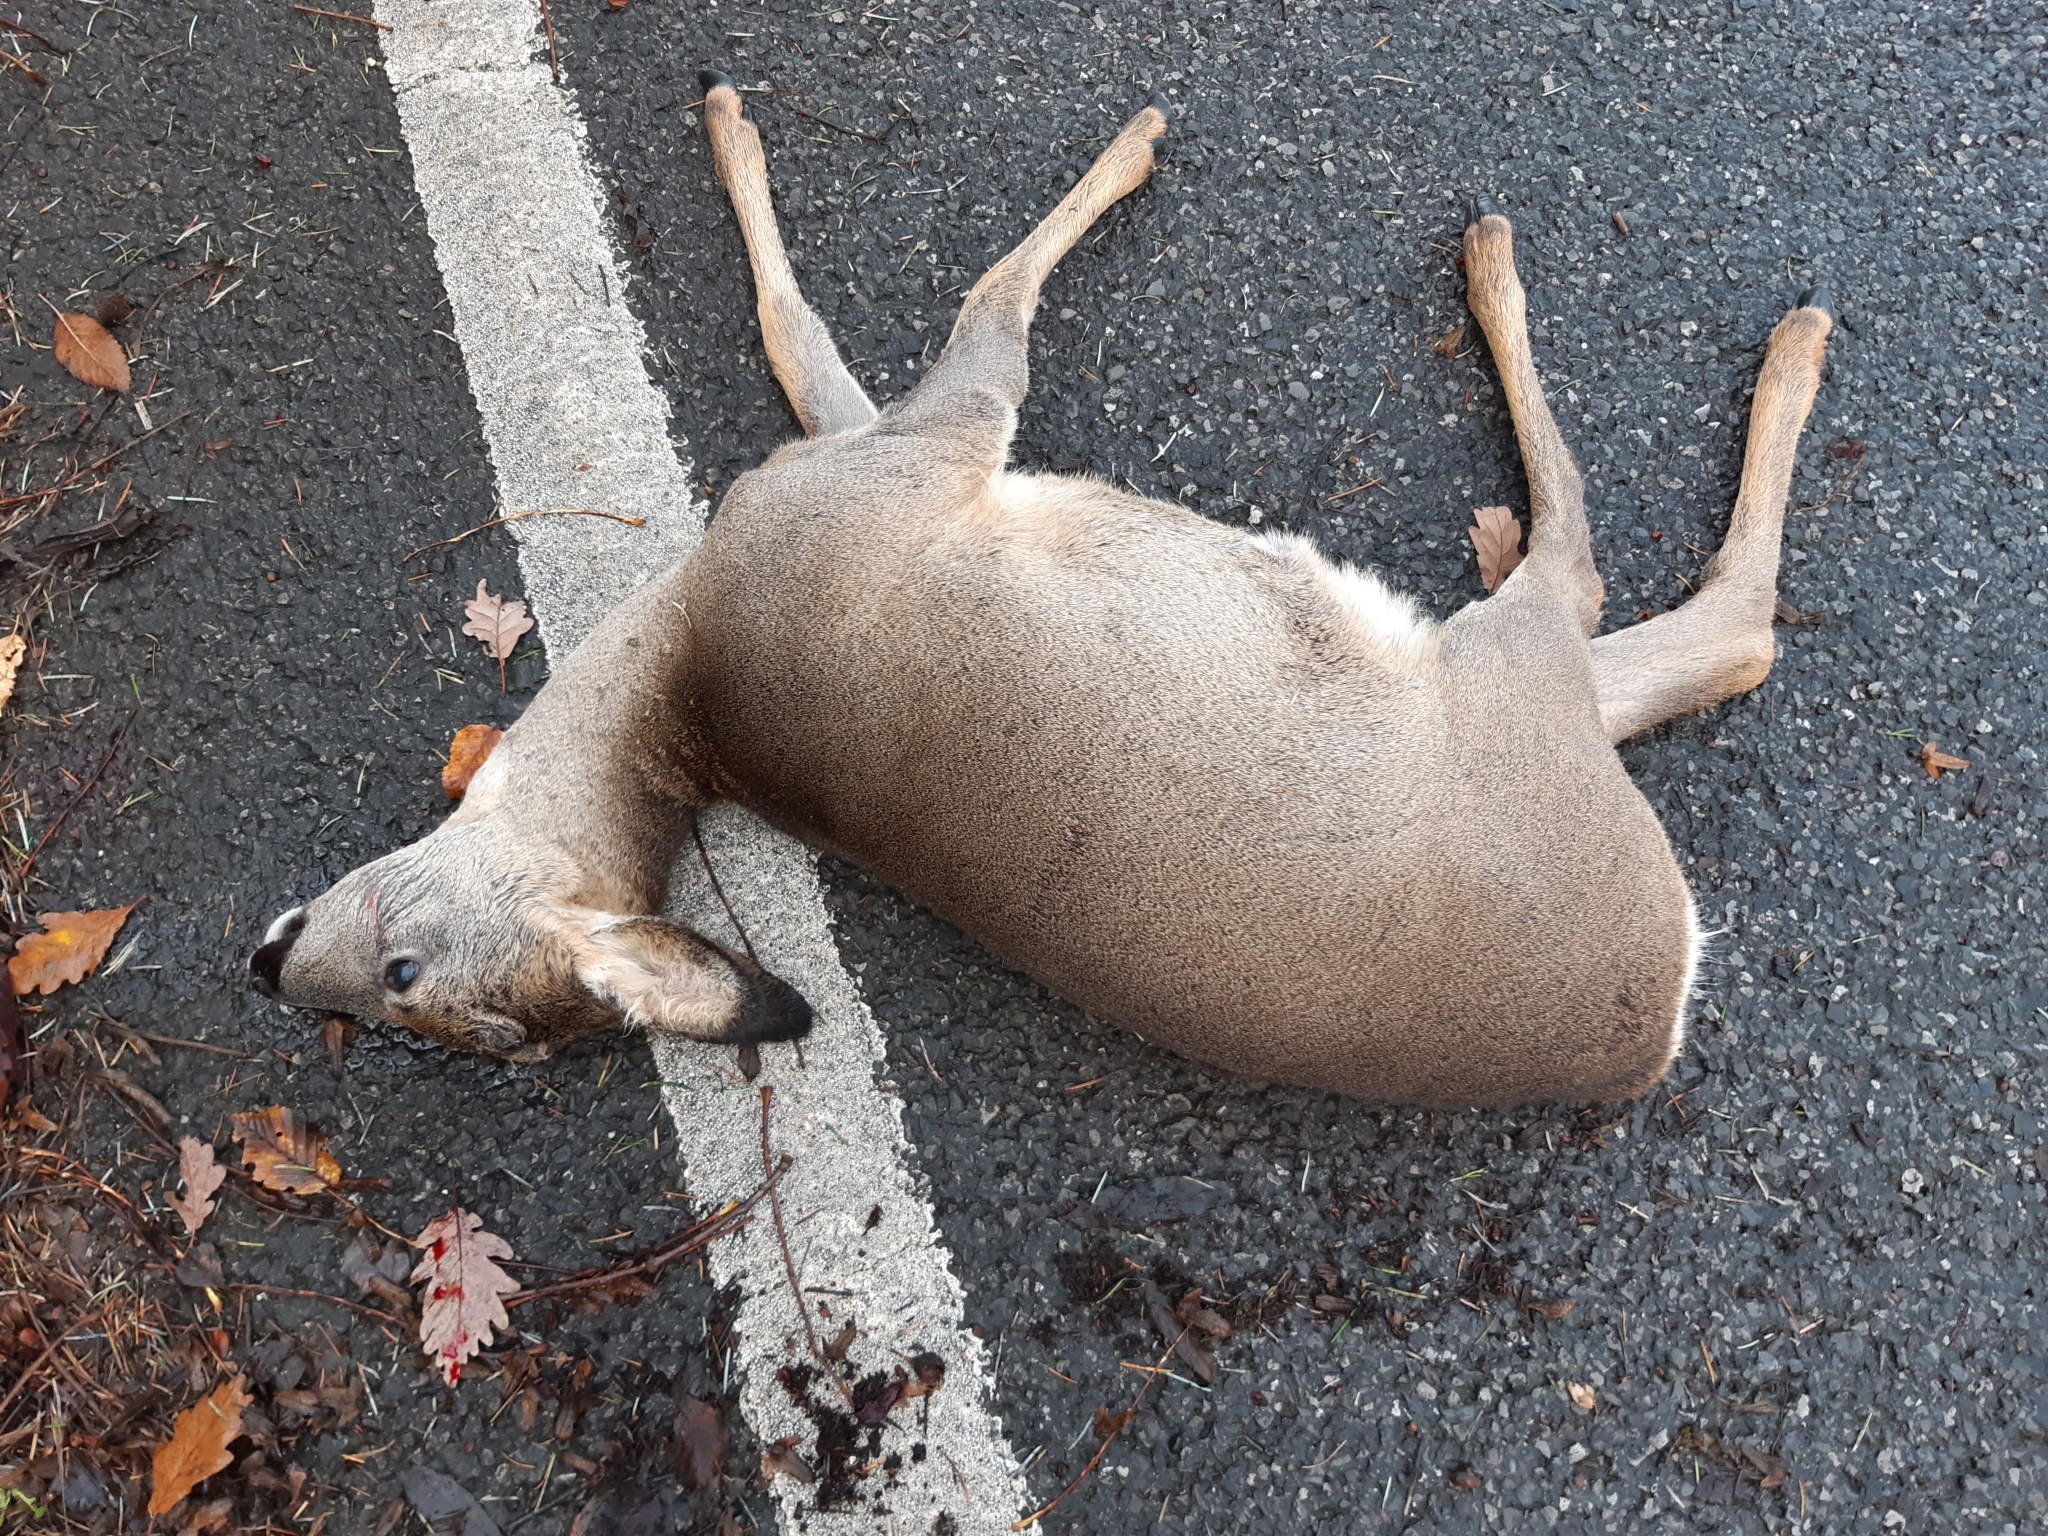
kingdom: Animalia
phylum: Chordata
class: Mammalia
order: Artiodactyla
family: Cervidae
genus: Capreolus
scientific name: Capreolus capreolus
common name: Western roe deer
